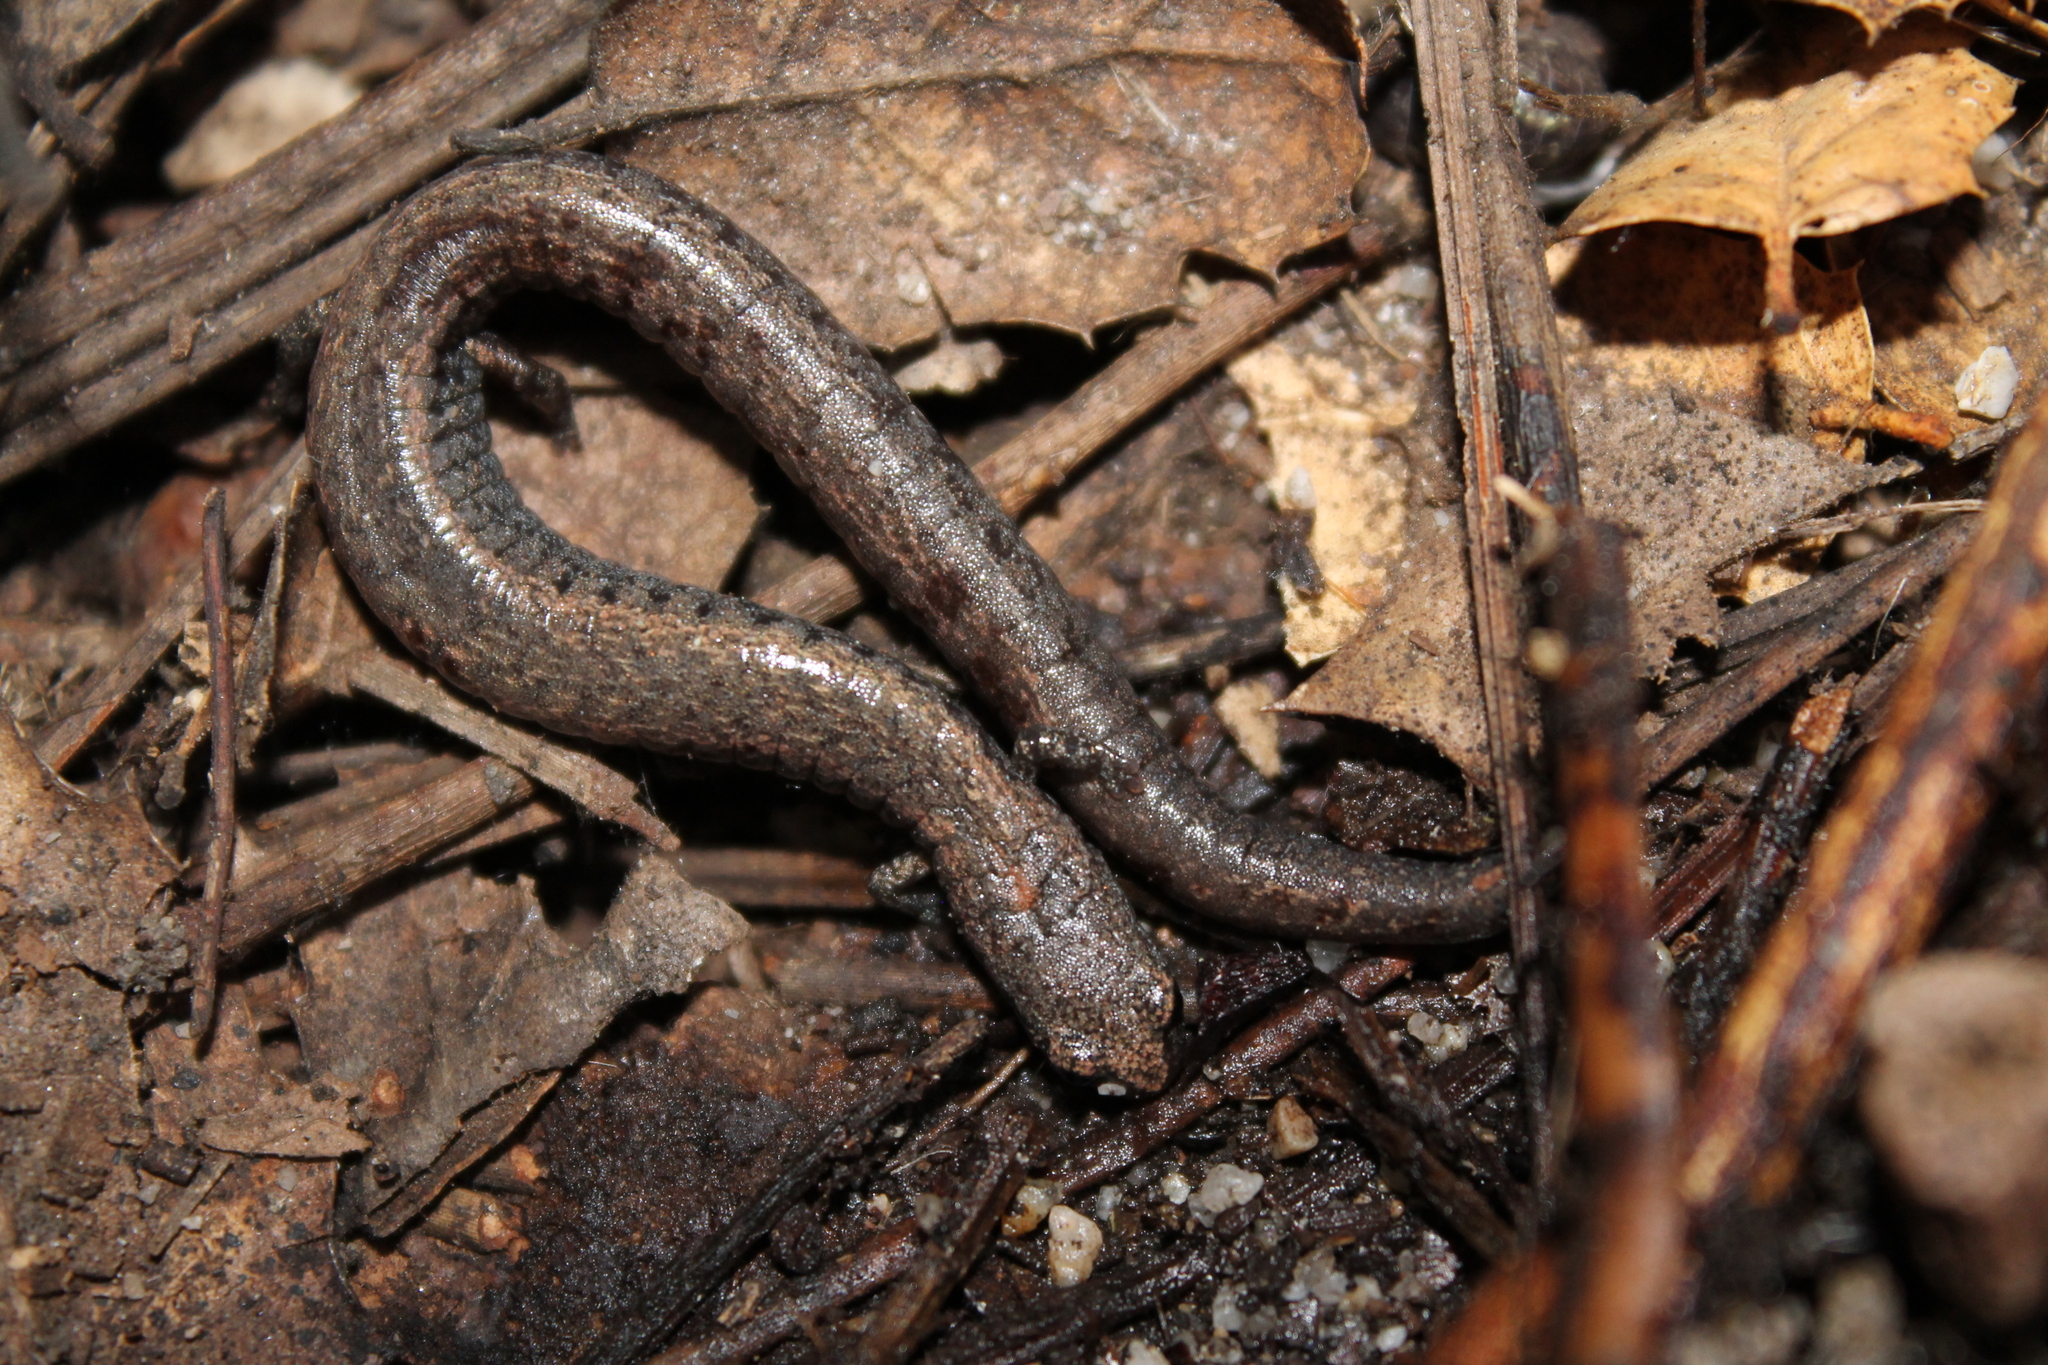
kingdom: Animalia
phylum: Chordata
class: Amphibia
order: Caudata
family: Plethodontidae
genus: Batrachoseps
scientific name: Batrachoseps gavilanensis
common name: Gabilan mountains slender salamander
